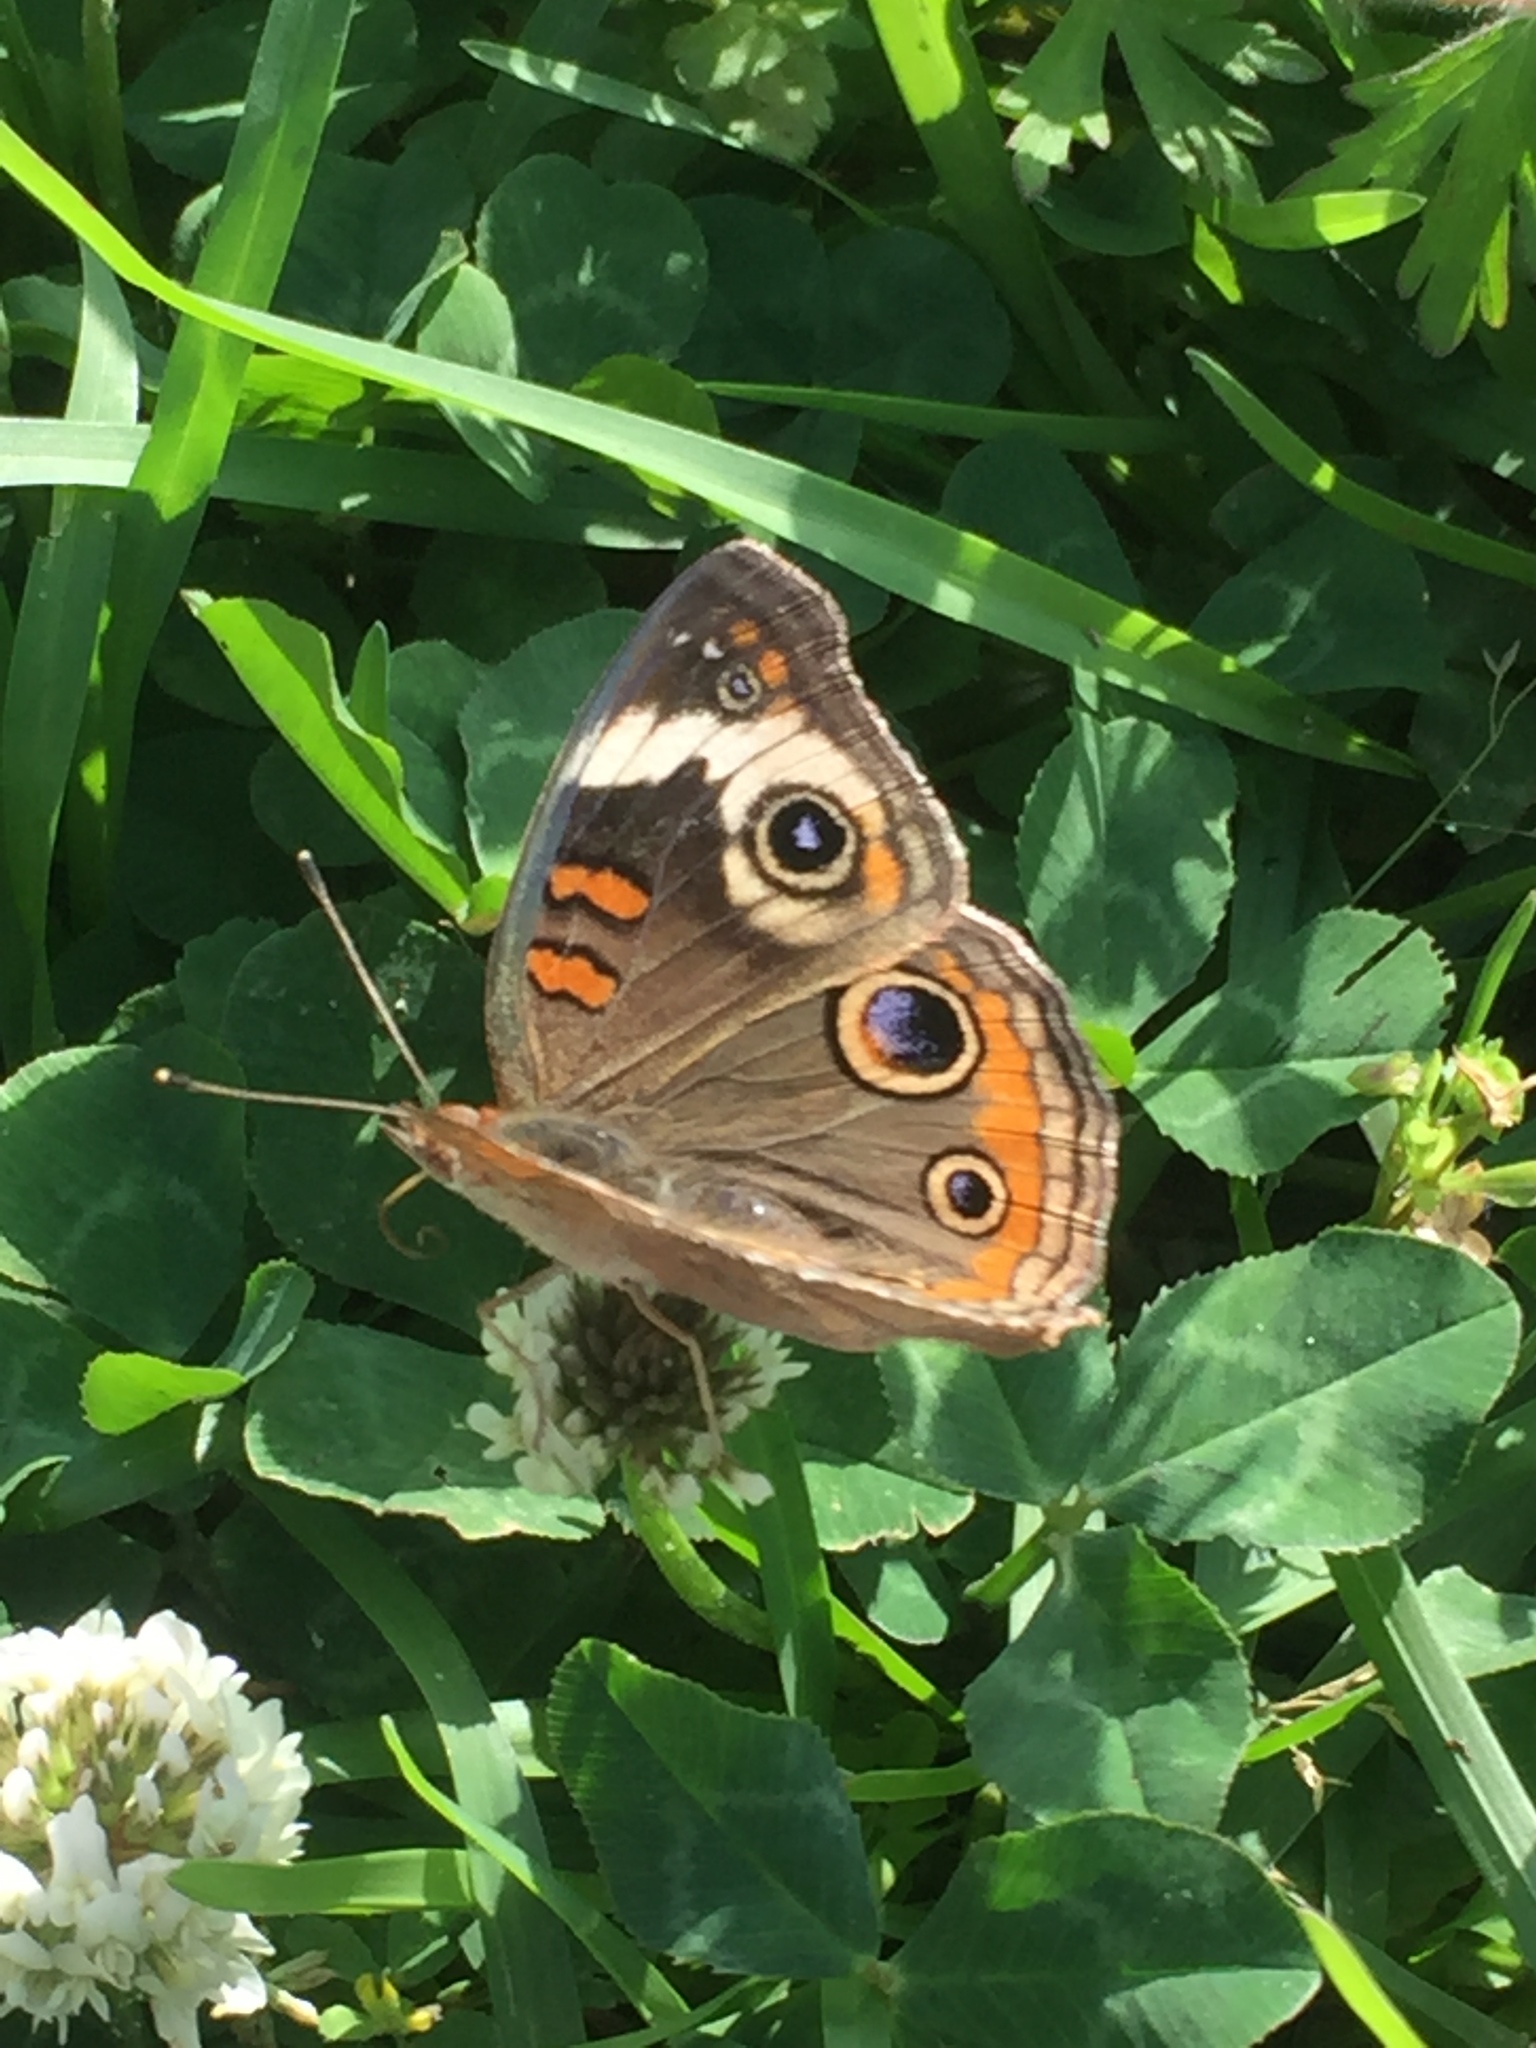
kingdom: Animalia
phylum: Arthropoda
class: Insecta
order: Lepidoptera
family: Nymphalidae
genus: Junonia
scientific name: Junonia coenia
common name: Common buckeye
